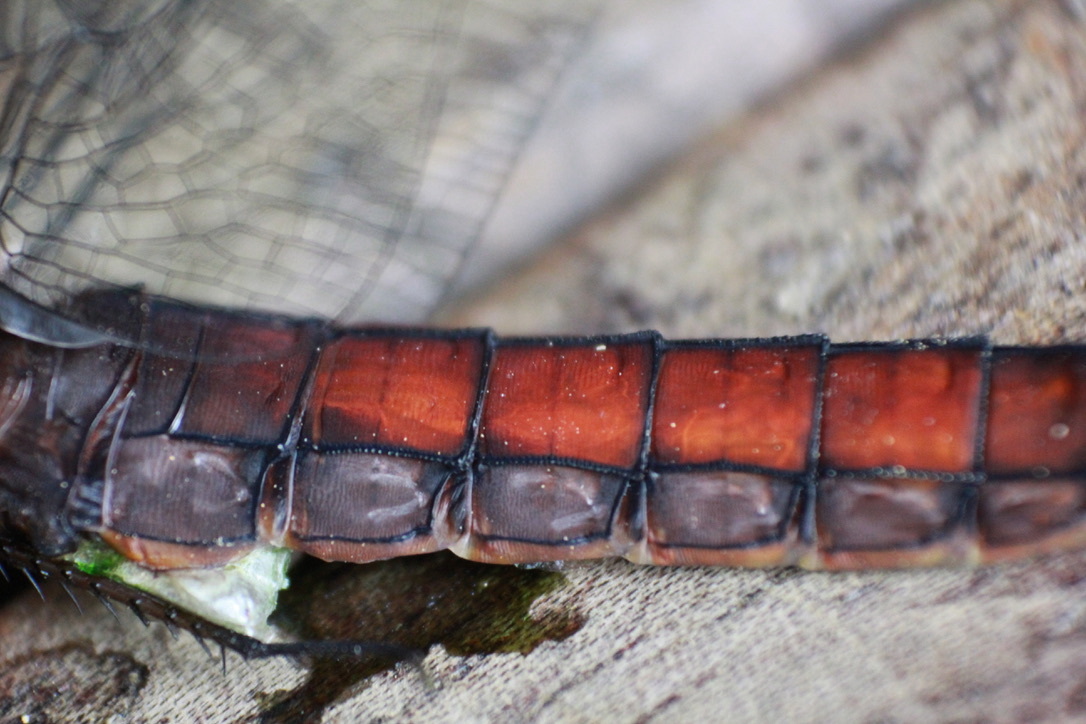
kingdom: Animalia
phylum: Arthropoda
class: Insecta
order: Odonata
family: Libellulidae
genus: Libellula
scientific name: Libellula herculea
